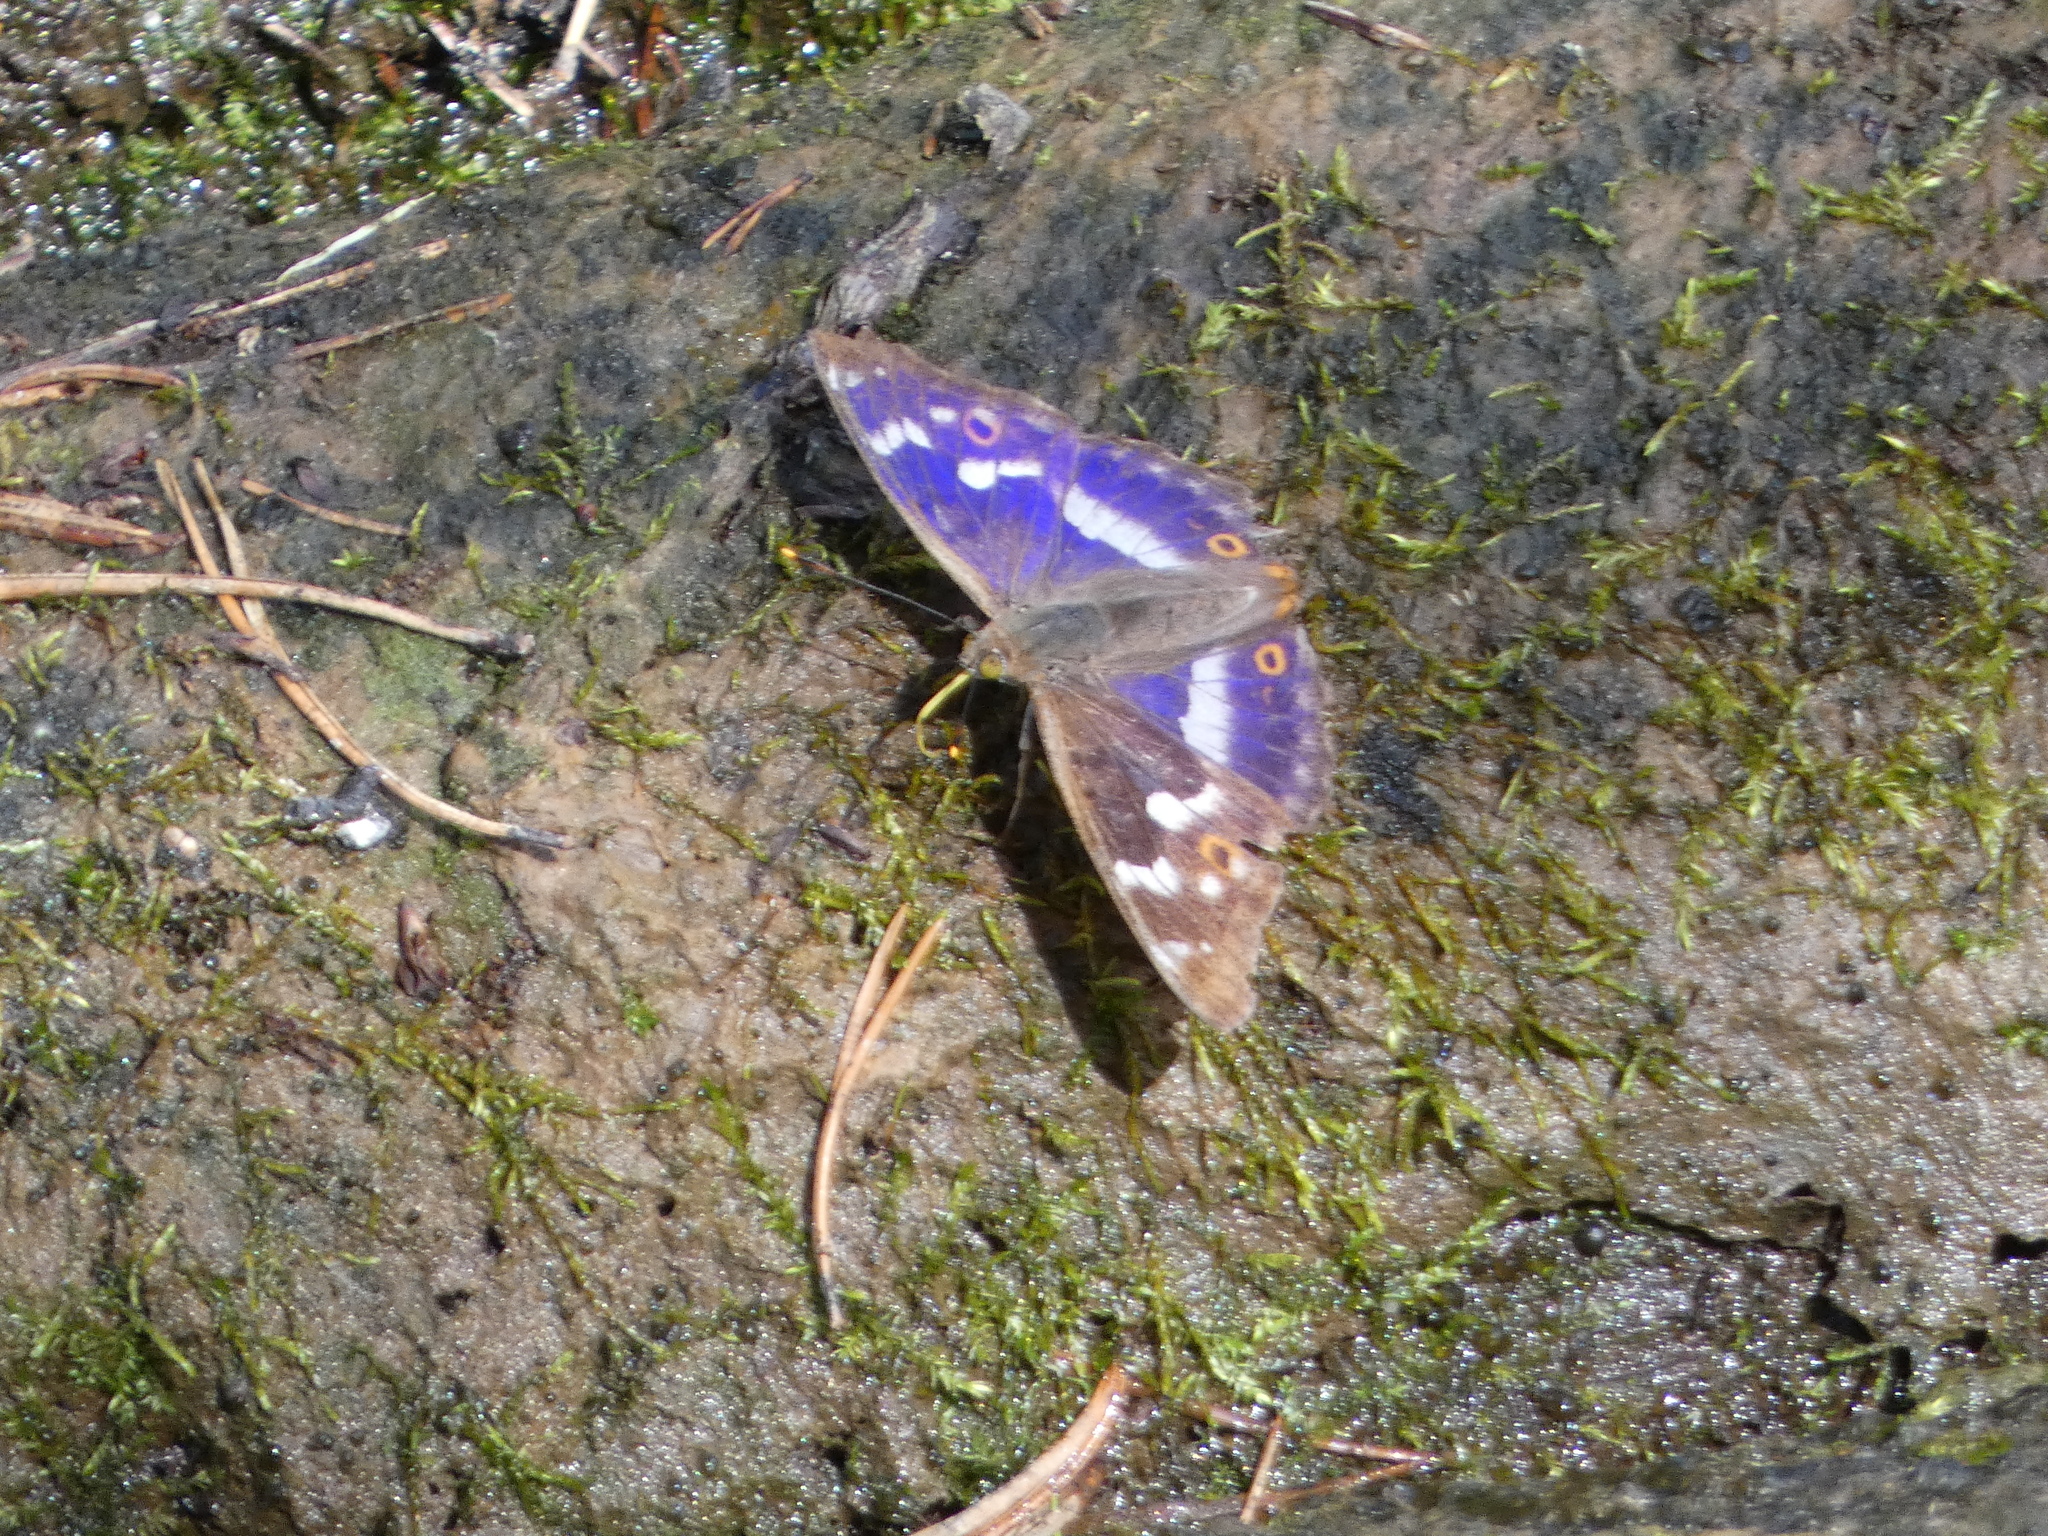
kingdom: Animalia
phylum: Arthropoda
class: Insecta
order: Lepidoptera
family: Nymphalidae
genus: Apatura
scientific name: Apatura ilia
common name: Lesser purple emperor
